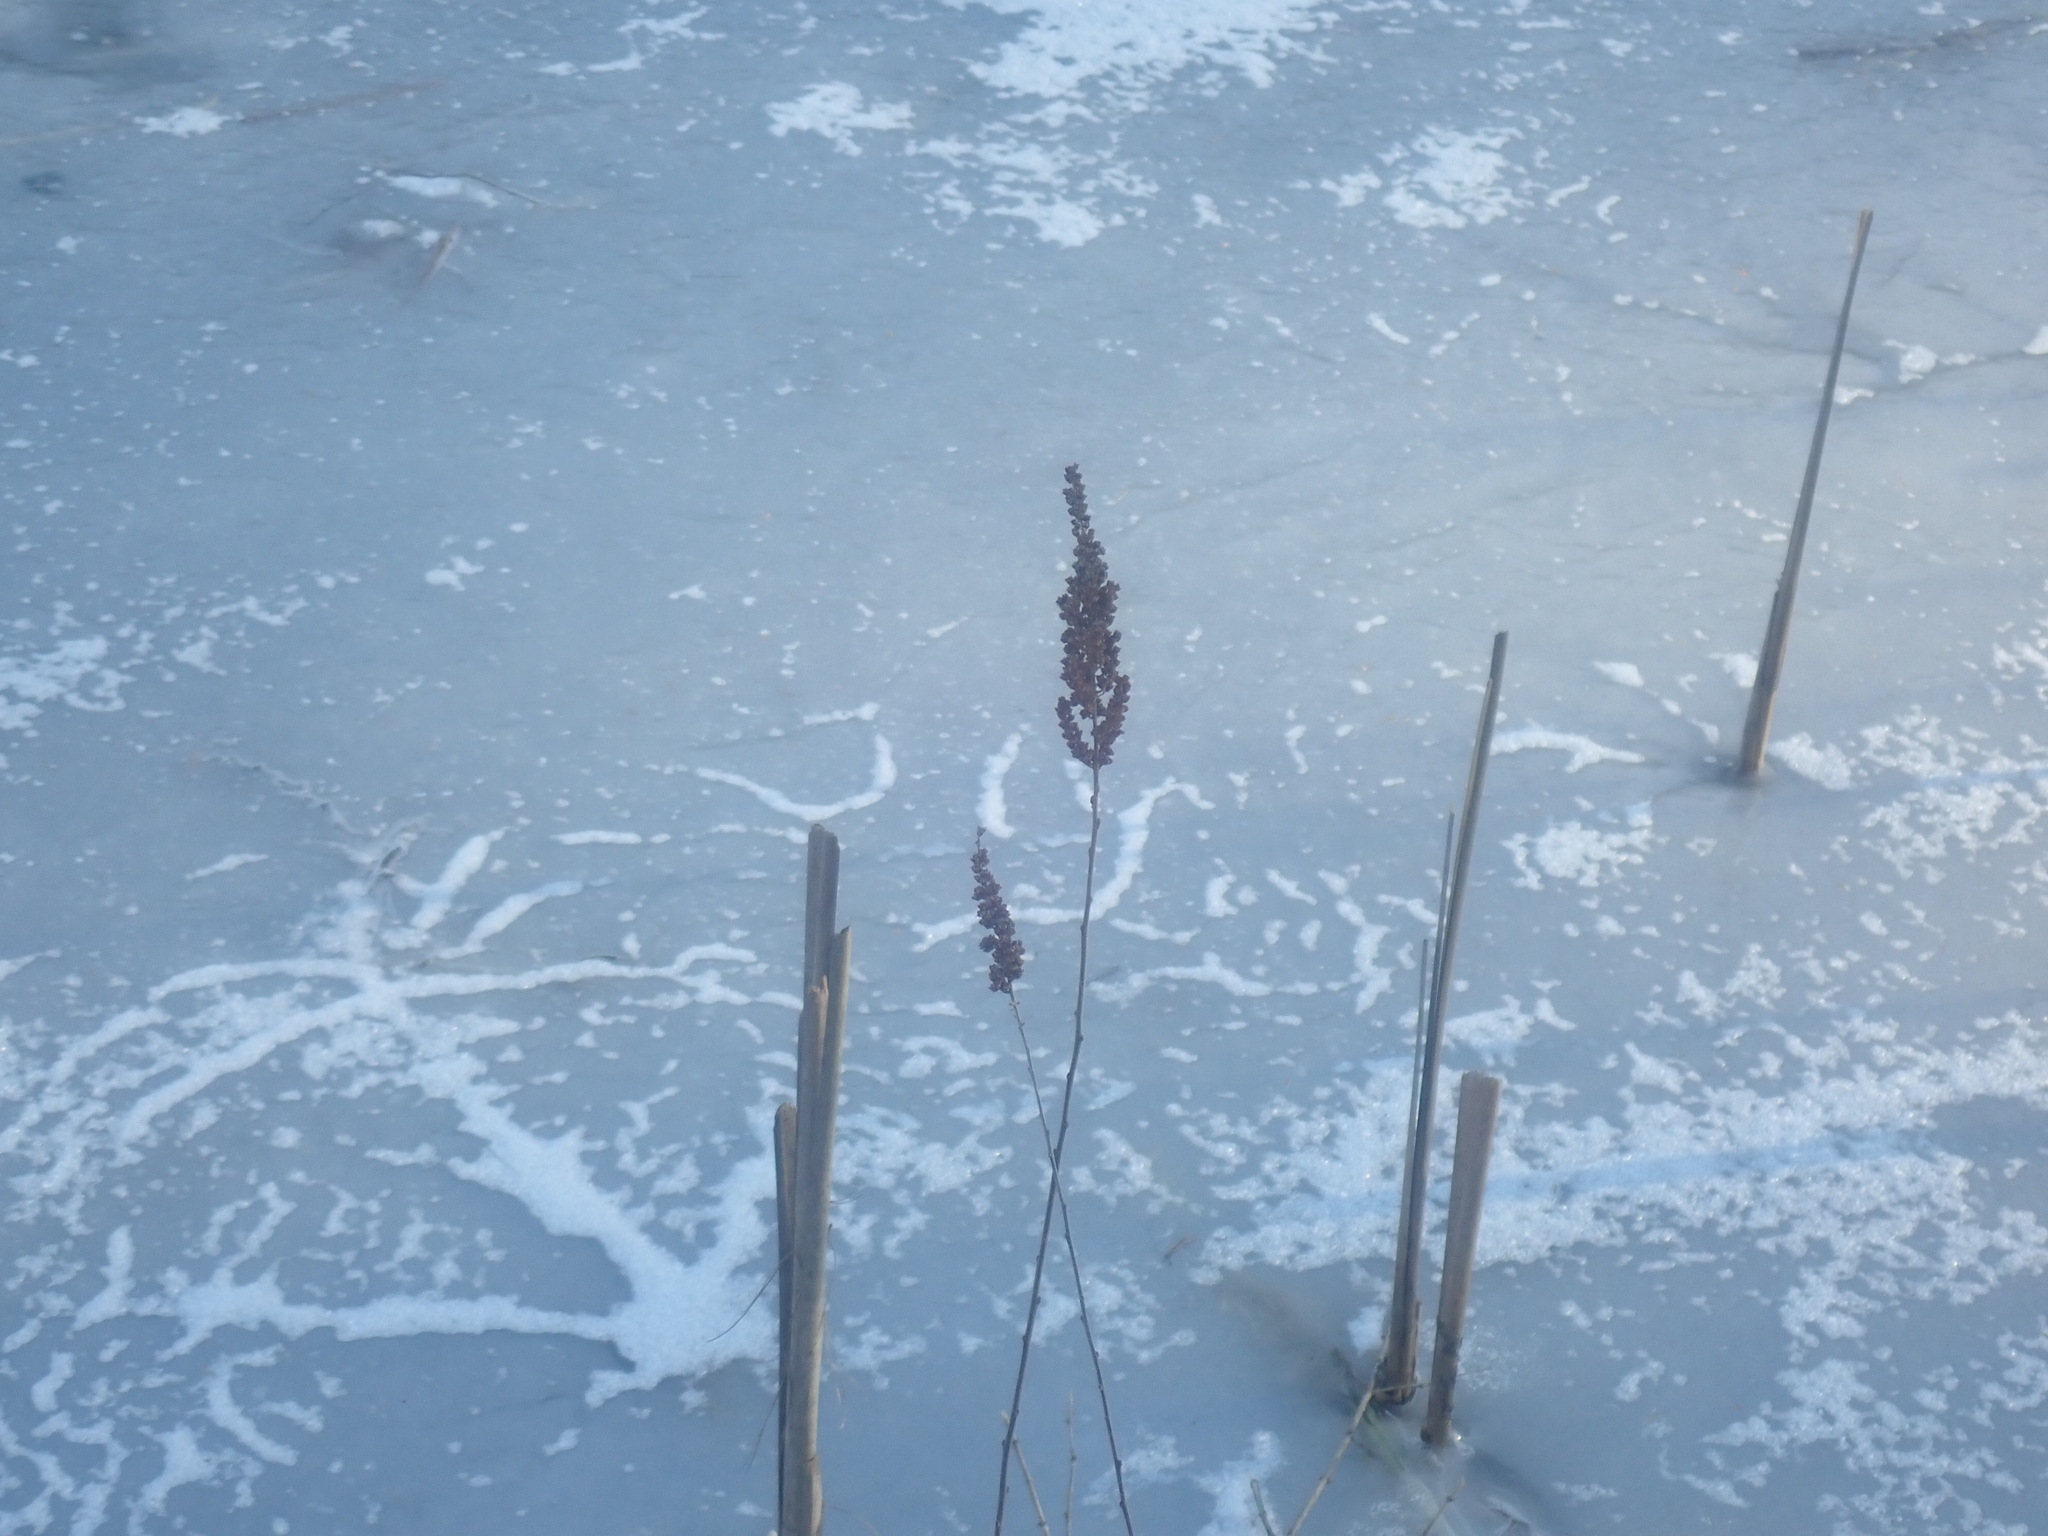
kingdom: Plantae
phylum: Tracheophyta
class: Magnoliopsida
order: Rosales
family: Rosaceae
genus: Spiraea
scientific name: Spiraea tomentosa
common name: Hardhack
